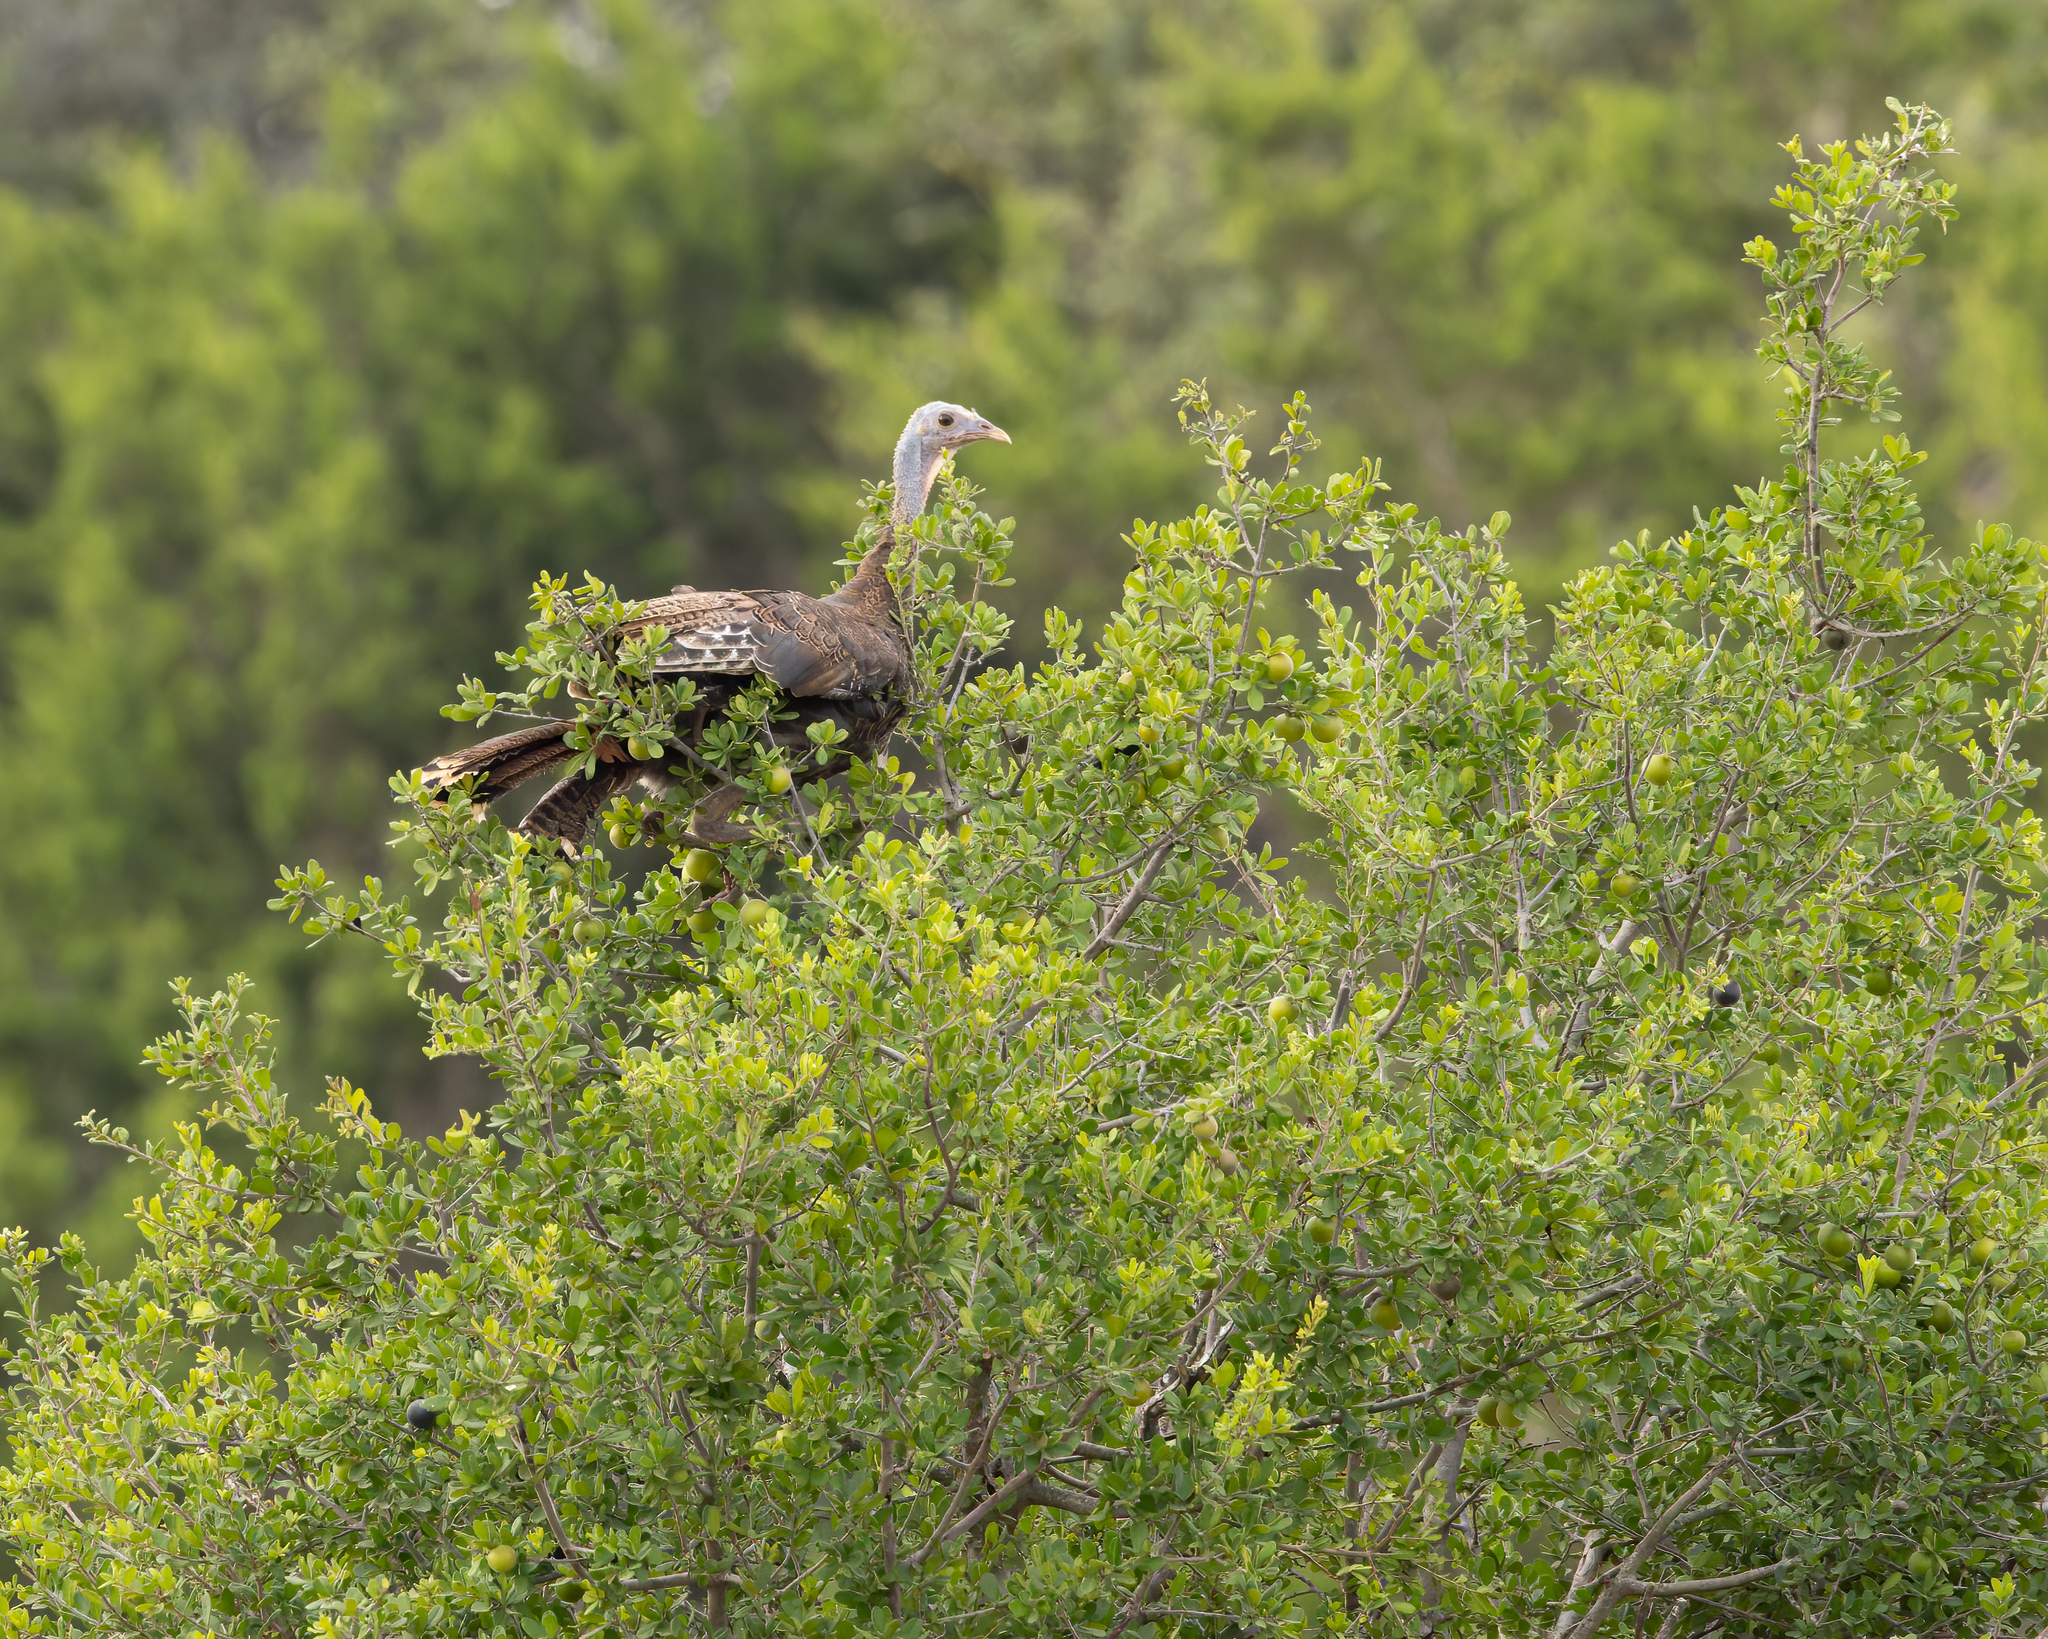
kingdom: Animalia
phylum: Chordata
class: Aves
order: Galliformes
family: Phasianidae
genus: Meleagris
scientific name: Meleagris gallopavo
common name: Wild turkey
